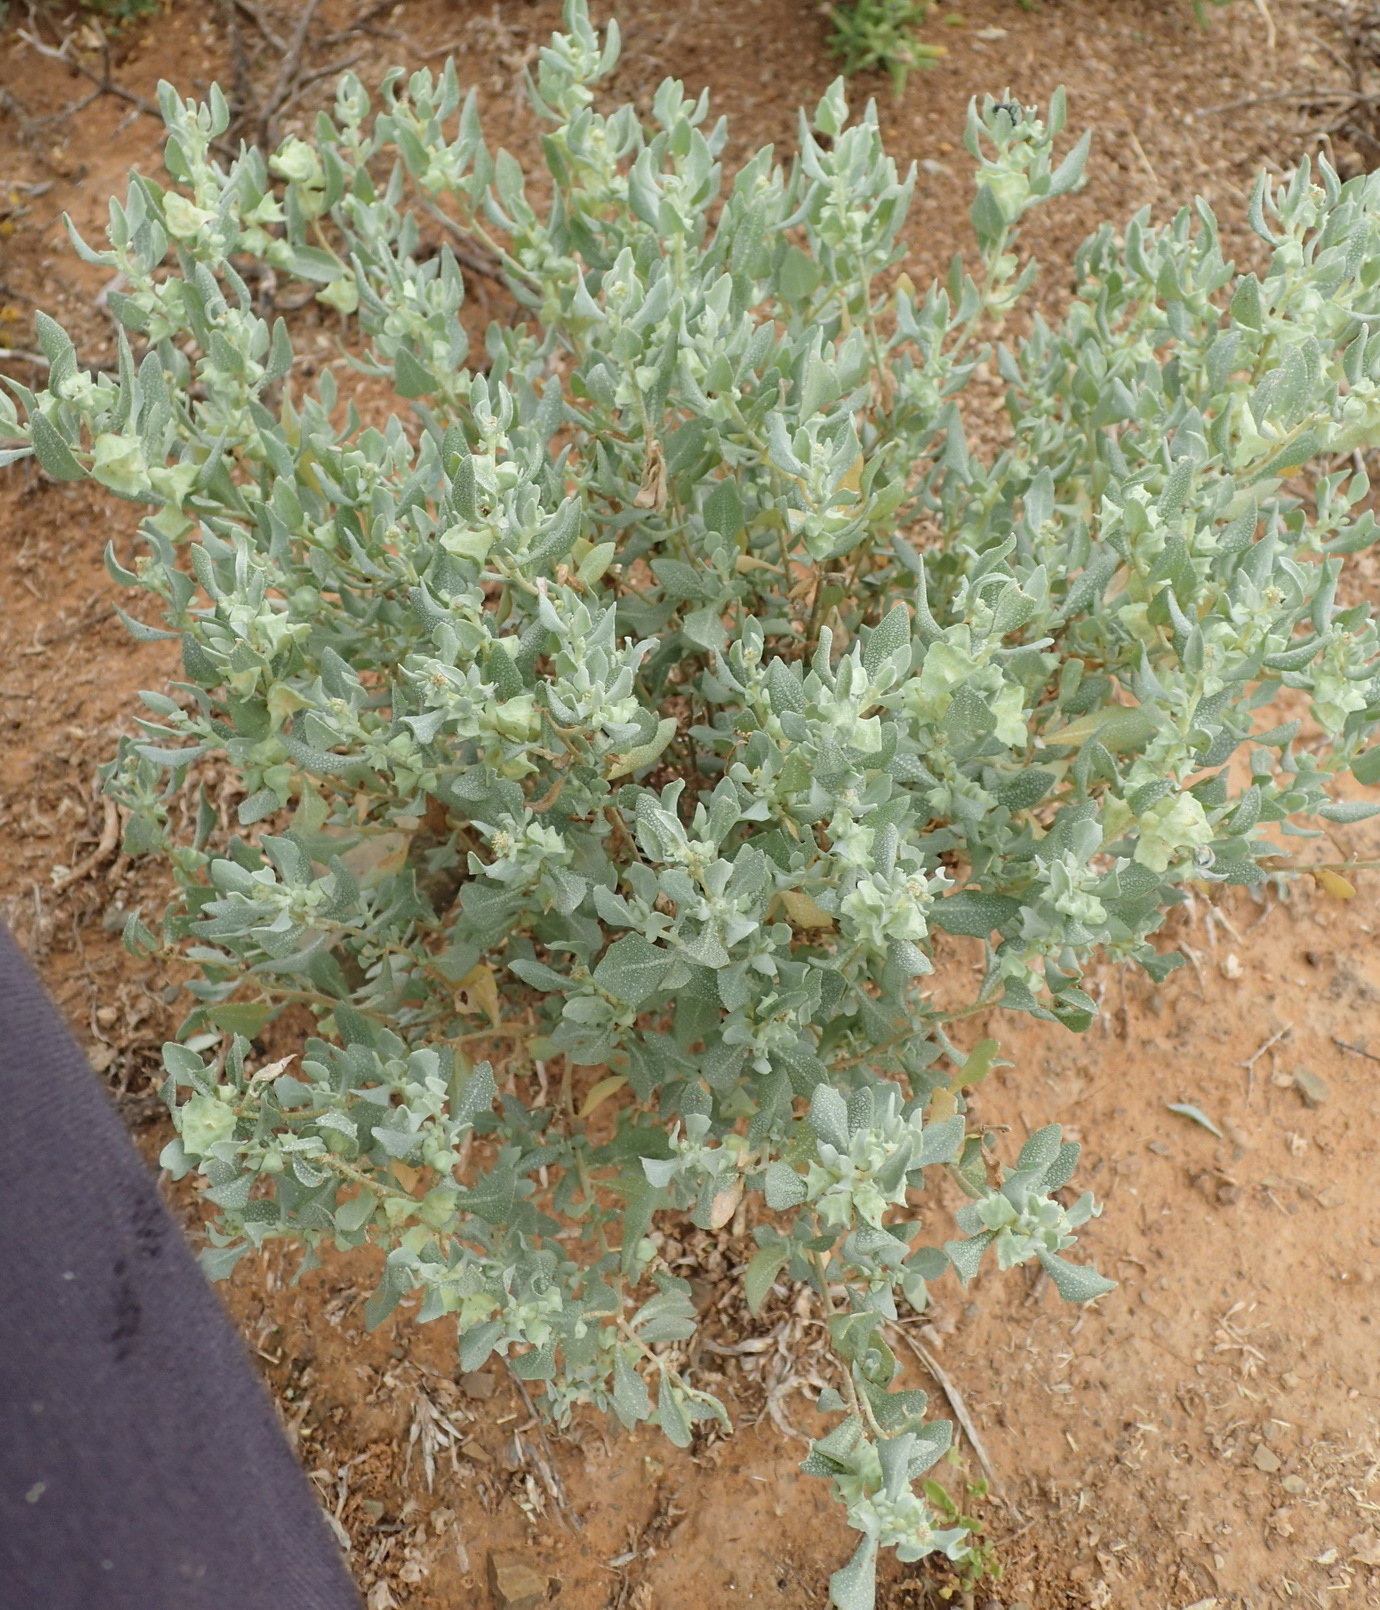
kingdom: Plantae
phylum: Tracheophyta
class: Magnoliopsida
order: Caryophyllales
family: Amaranthaceae
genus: Atriplex
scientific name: Atriplex lindleyi
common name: Lindley's saltbush
